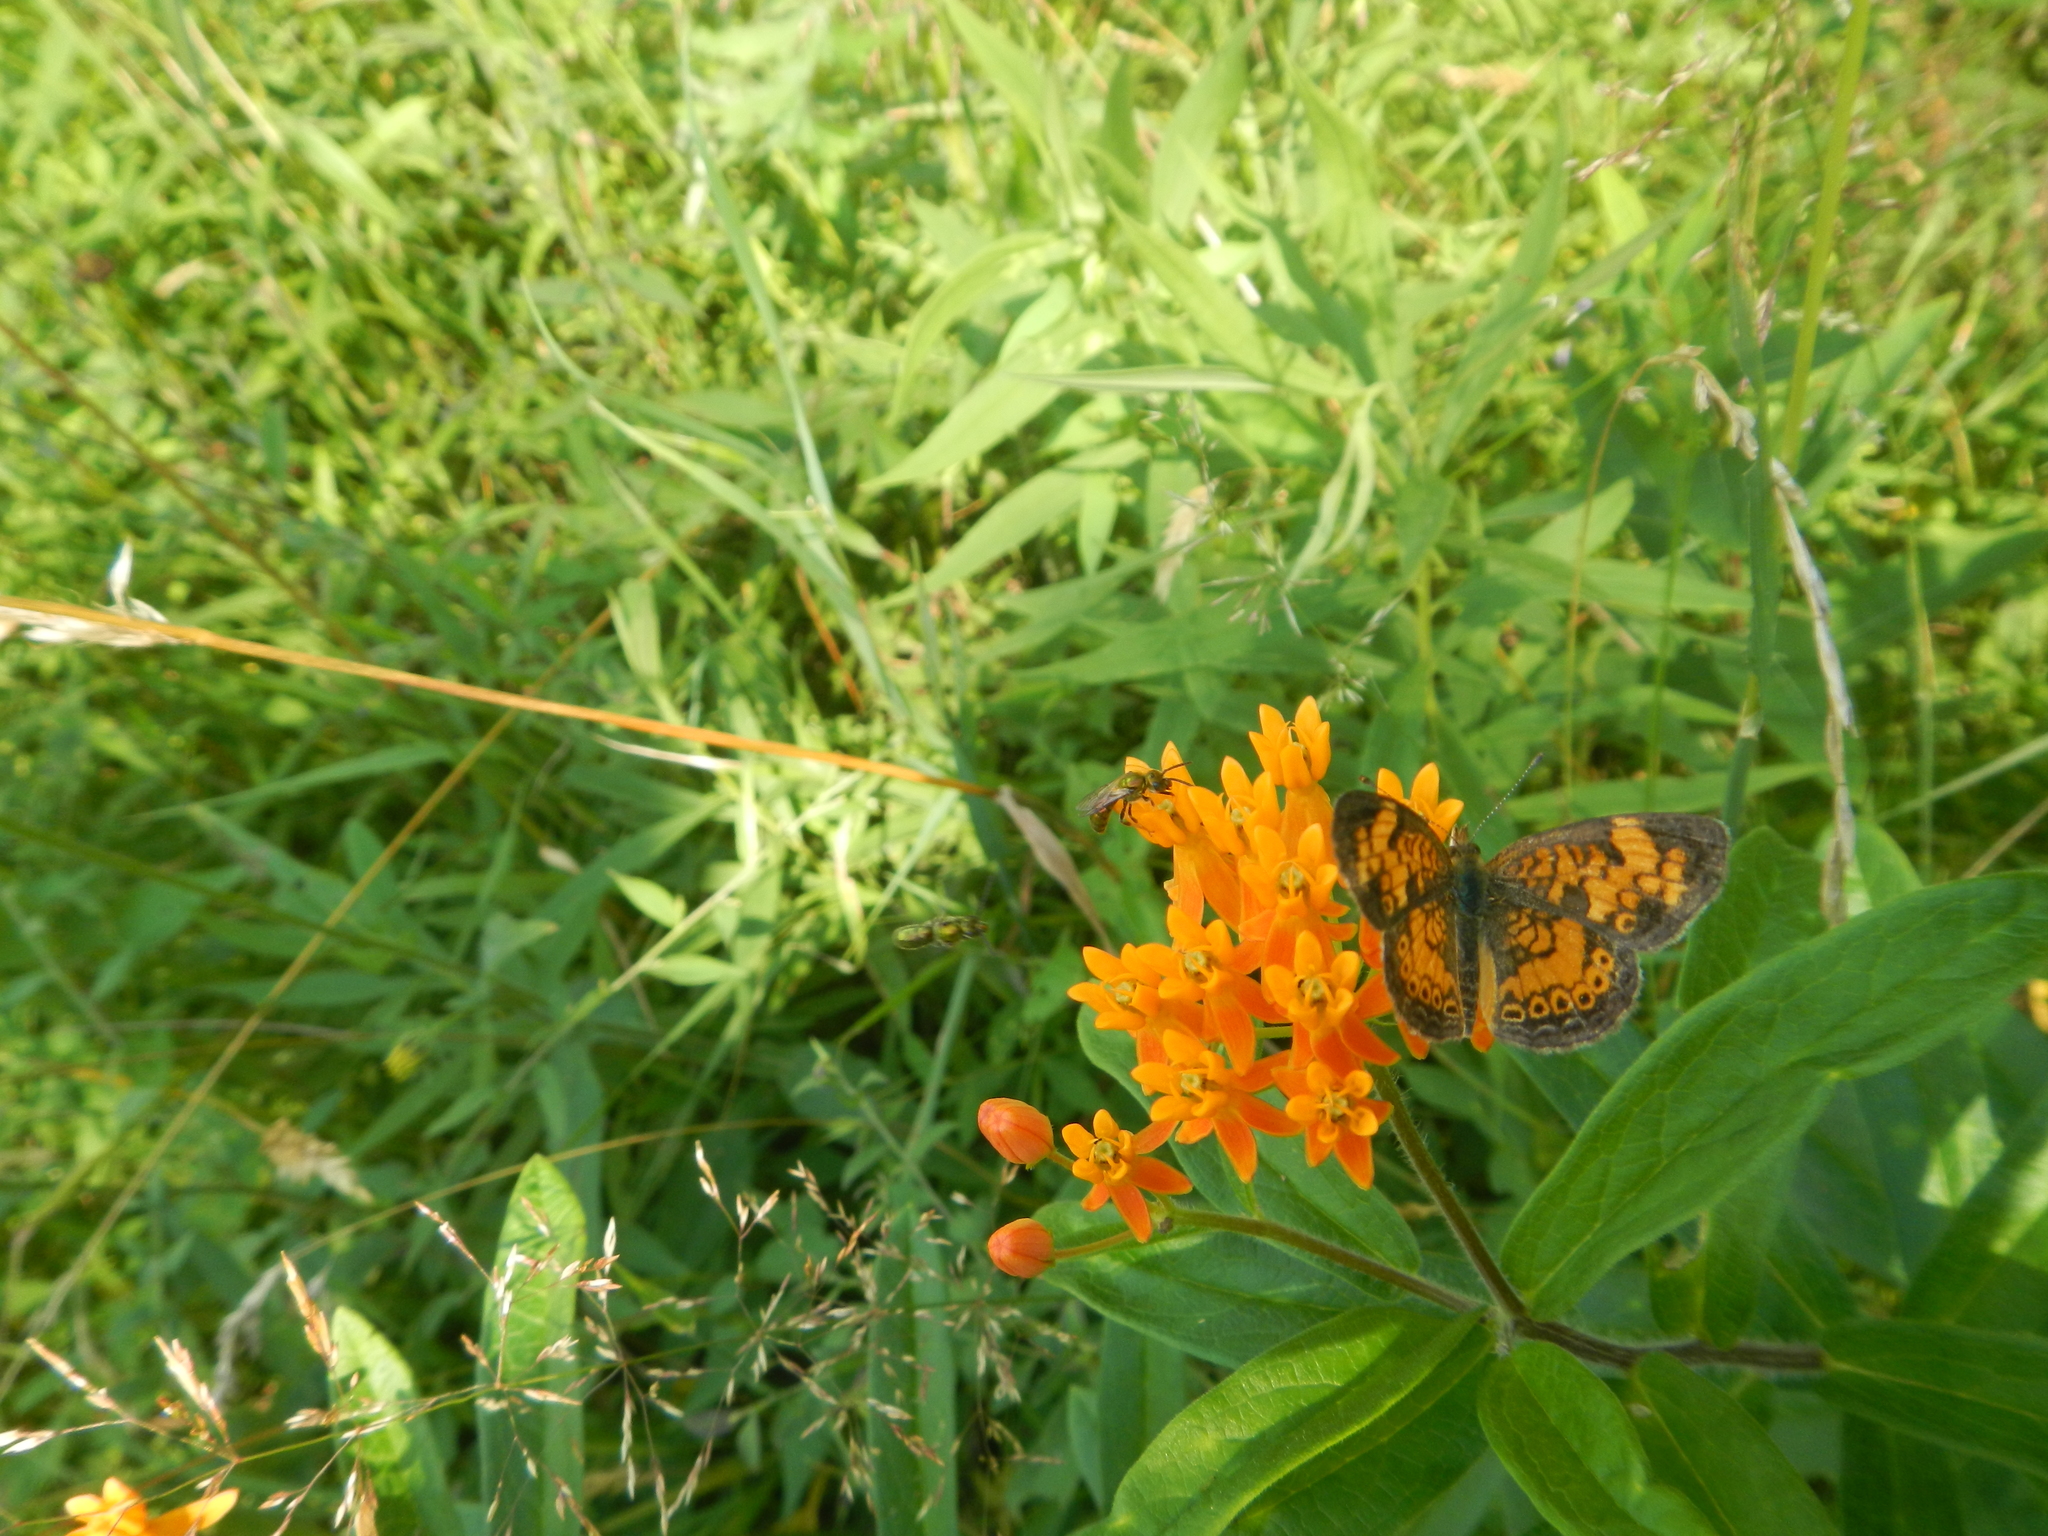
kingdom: Animalia
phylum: Arthropoda
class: Insecta
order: Lepidoptera
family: Nymphalidae
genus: Phyciodes
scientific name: Phyciodes tharos
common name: Pearl crescent
